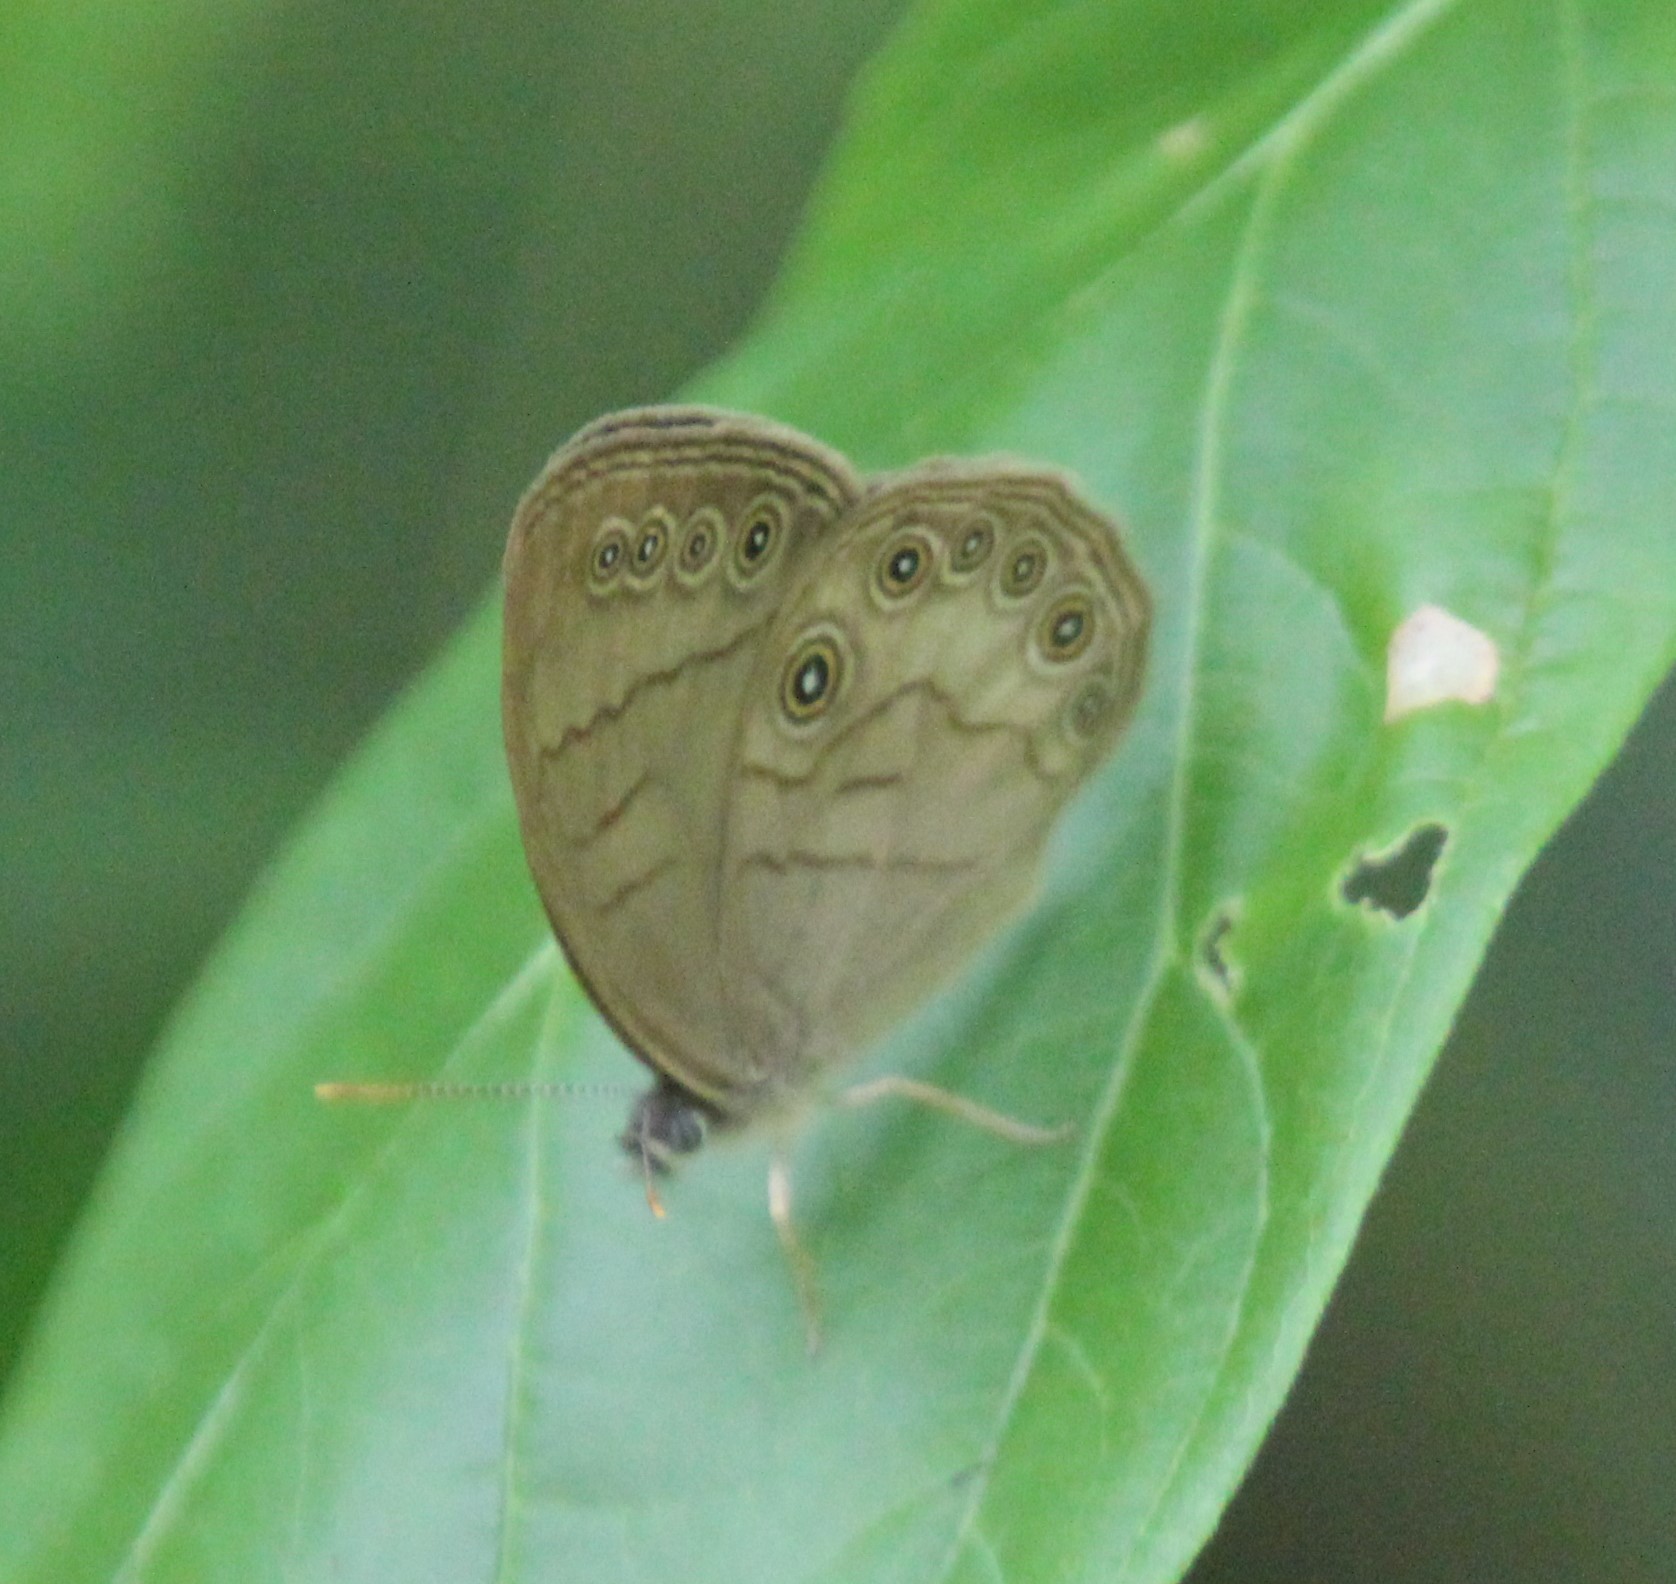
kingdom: Animalia
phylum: Arthropoda
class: Insecta
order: Lepidoptera
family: Nymphalidae
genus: Lethe
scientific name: Lethe eurydice
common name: Eyed brown
